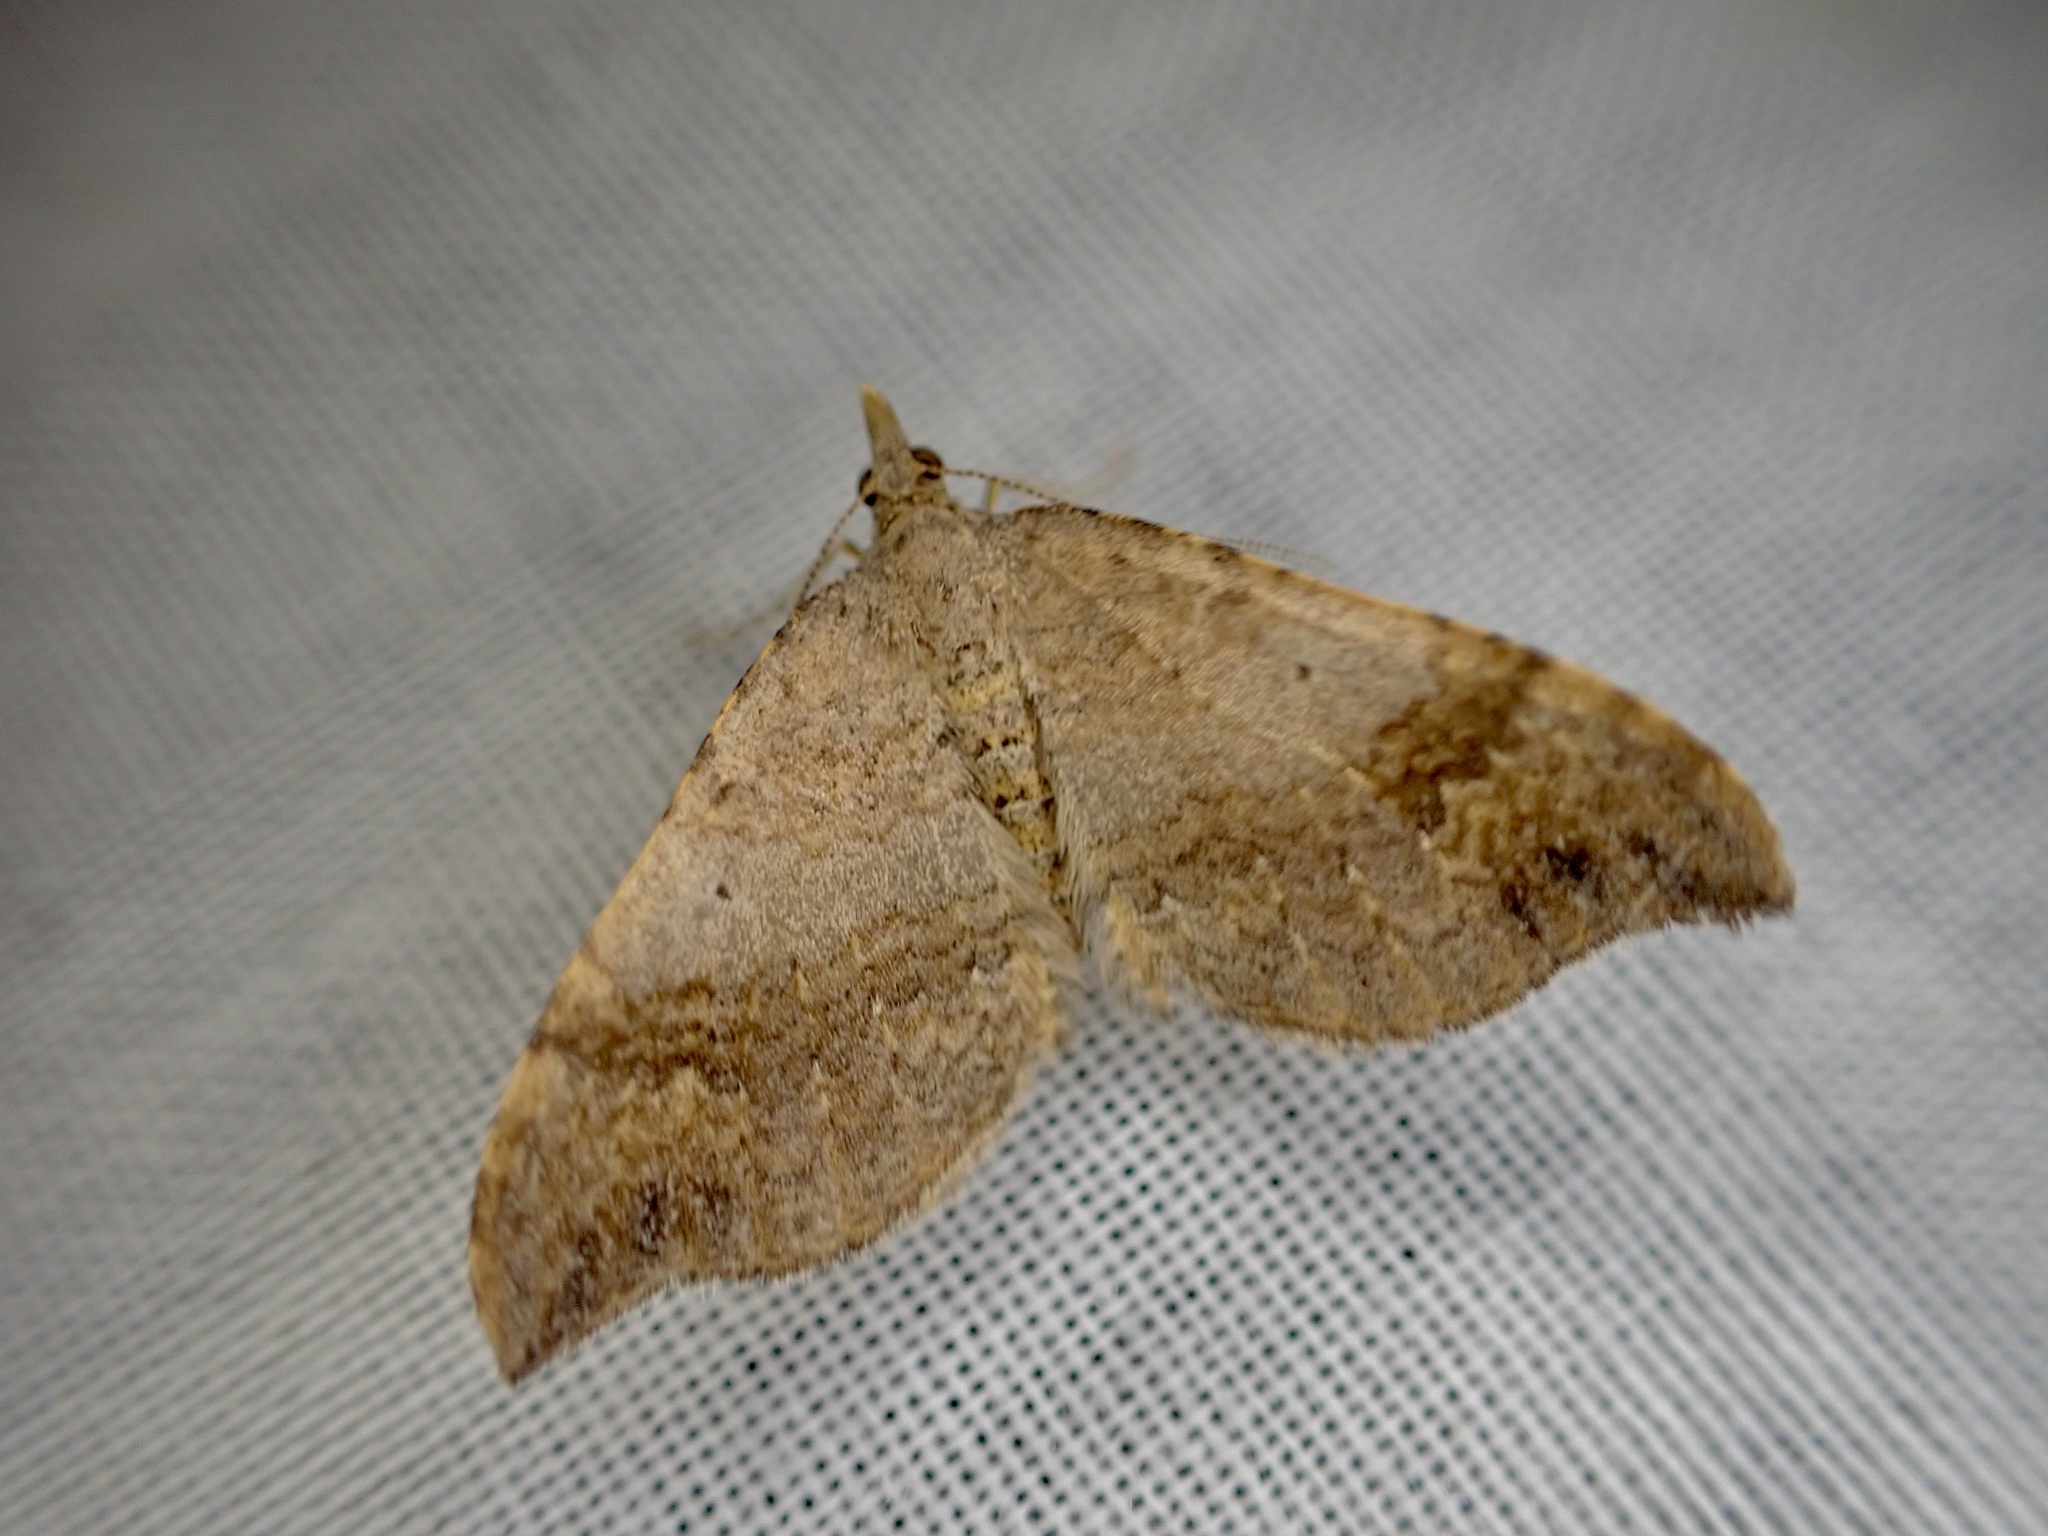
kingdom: Animalia
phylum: Arthropoda
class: Insecta
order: Lepidoptera
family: Geometridae
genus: Homodotis
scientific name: Homodotis megaspilata
